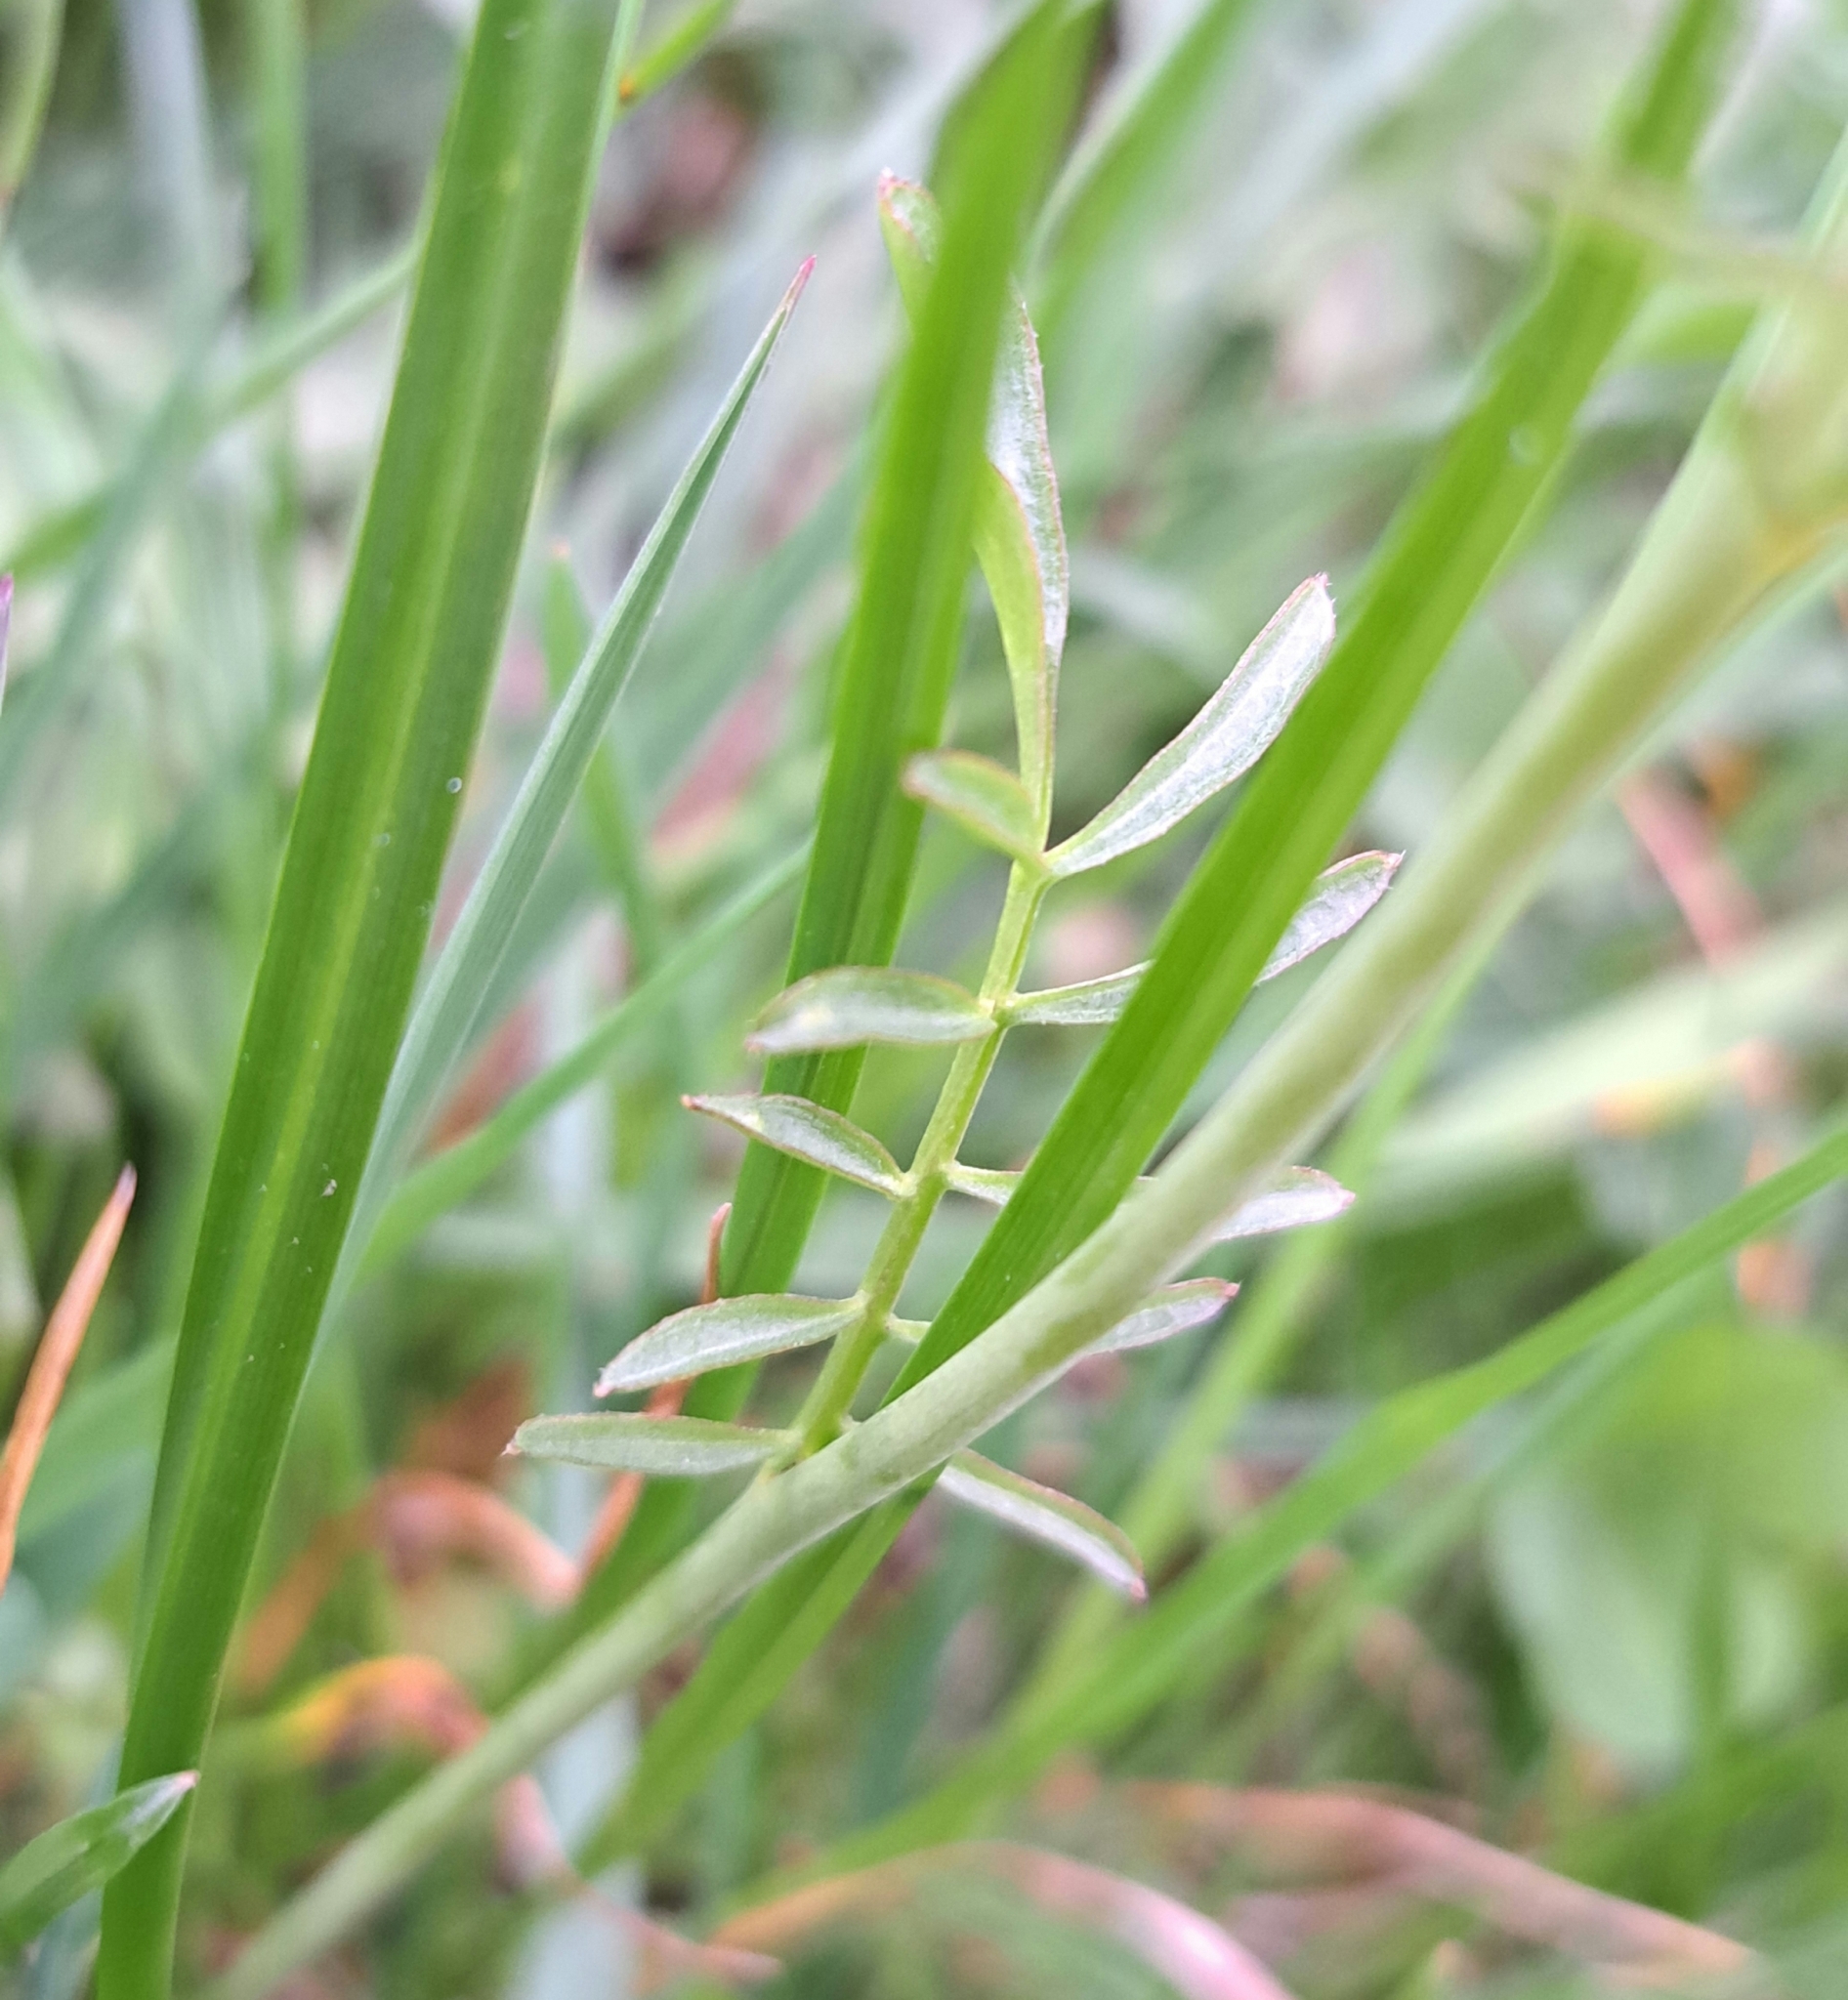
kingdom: Plantae
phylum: Tracheophyta
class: Magnoliopsida
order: Brassicales
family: Brassicaceae
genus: Cardamine
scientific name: Cardamine pratensis
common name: Cuckoo flower
